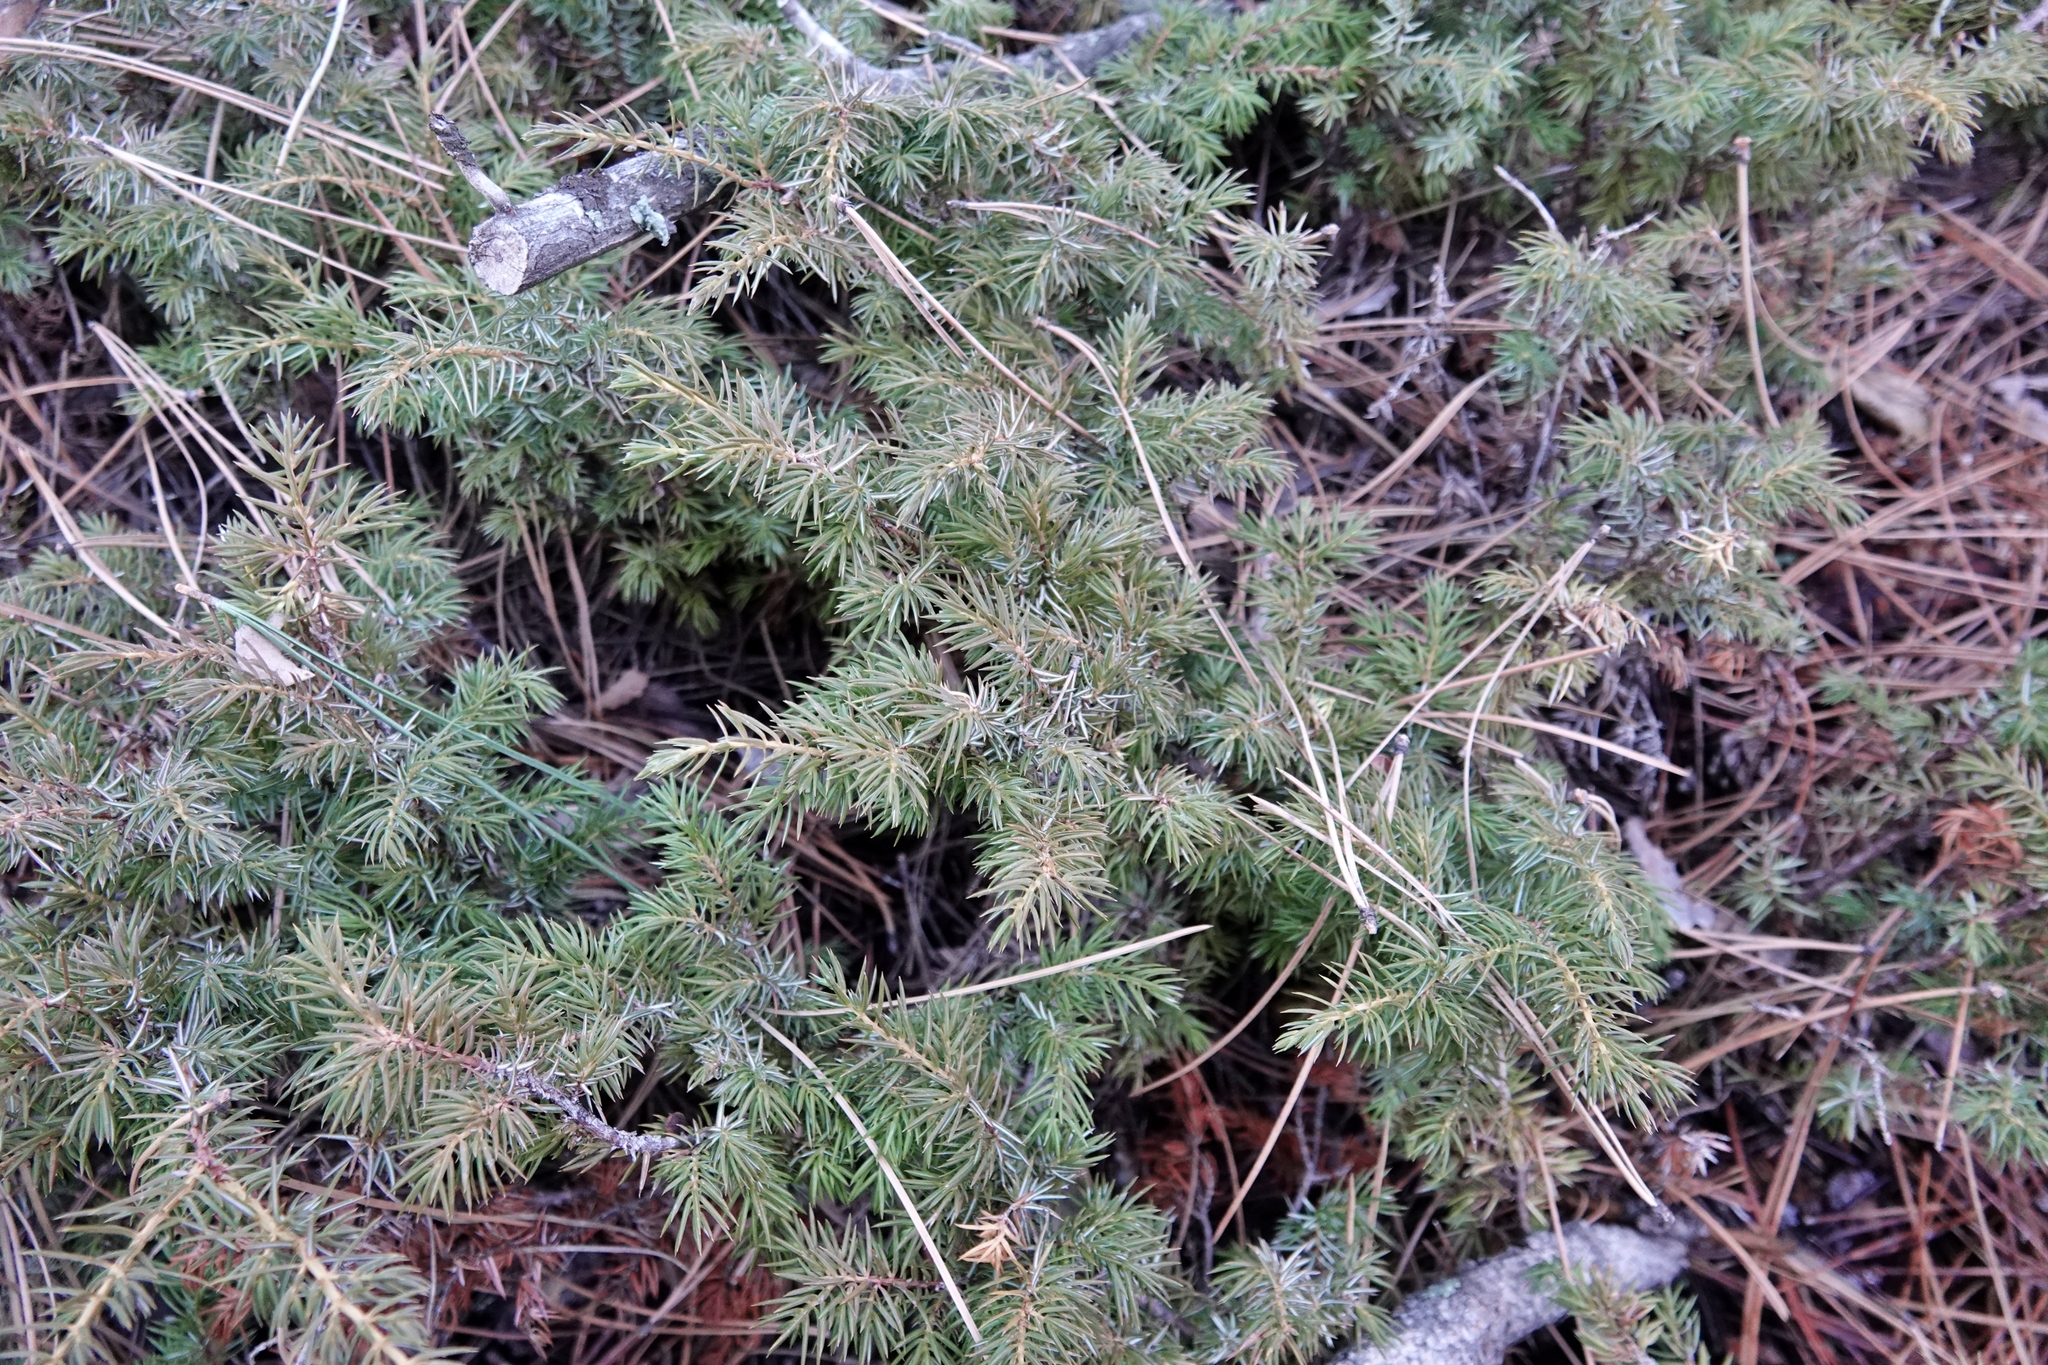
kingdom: Plantae
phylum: Tracheophyta
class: Pinopsida
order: Pinales
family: Cupressaceae
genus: Juniperus
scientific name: Juniperus communis
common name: Common juniper
